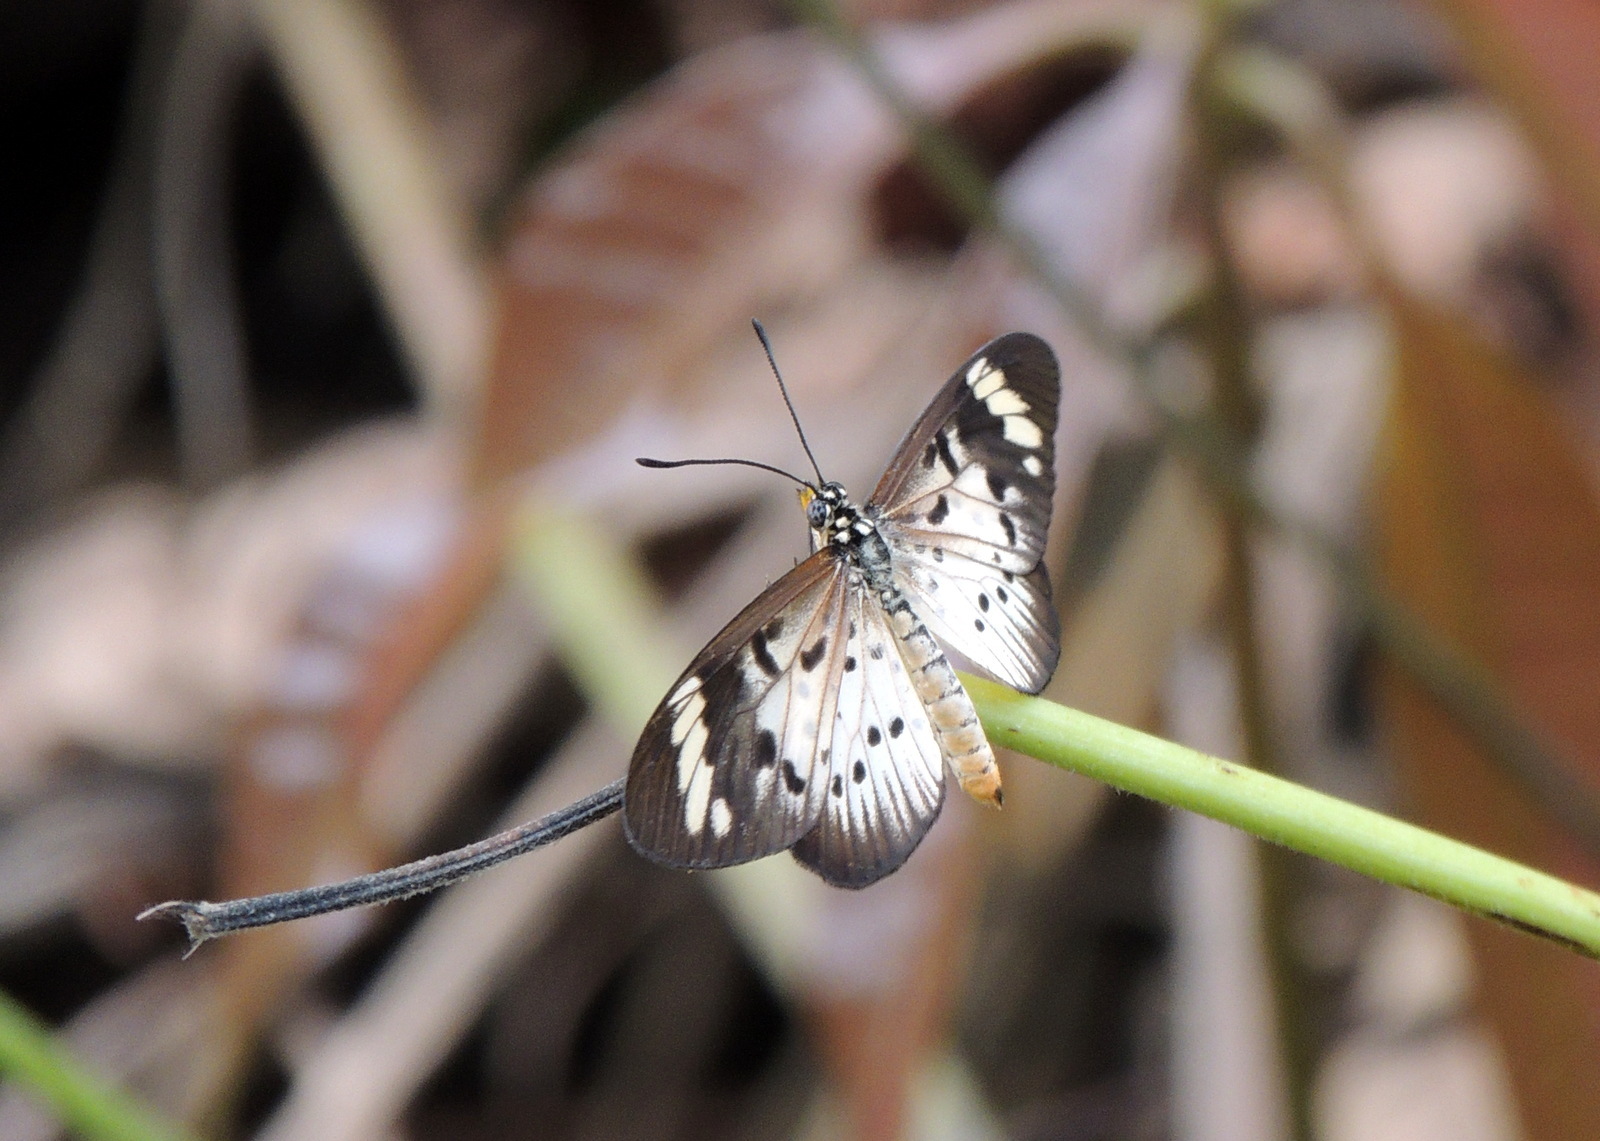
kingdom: Animalia
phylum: Arthropoda
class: Insecta
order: Lepidoptera
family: Nymphalidae
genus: Acraea
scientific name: Acraea Telchinia encedon
